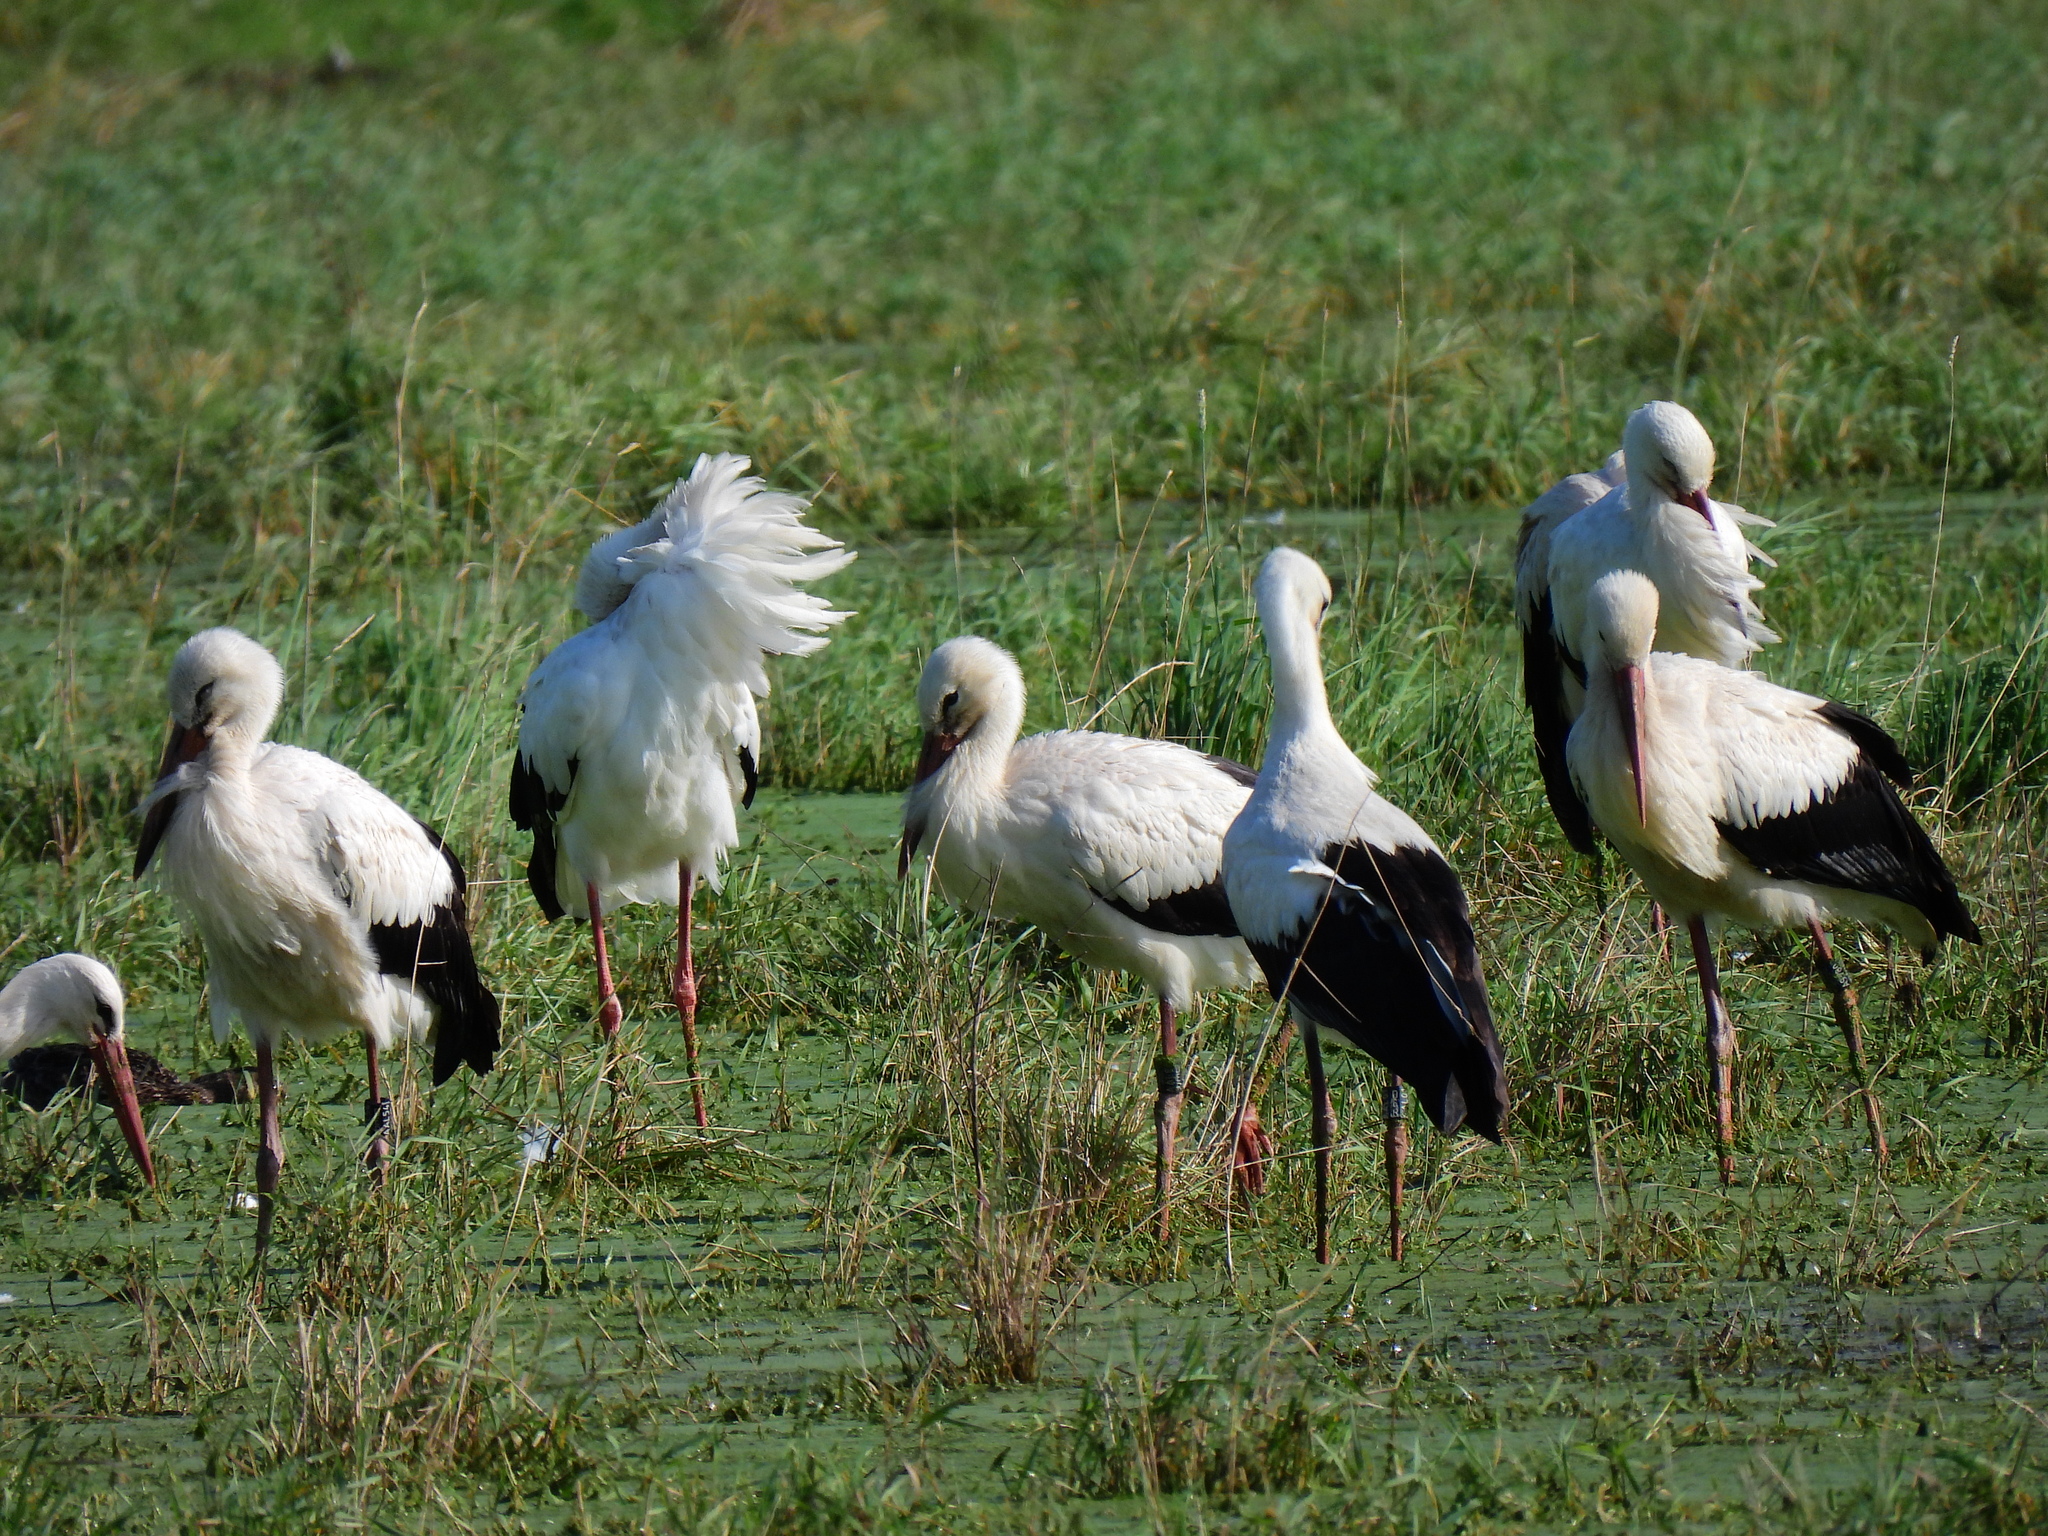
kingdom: Animalia
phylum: Chordata
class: Aves
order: Ciconiiformes
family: Ciconiidae
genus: Ciconia
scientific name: Ciconia ciconia
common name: White stork
